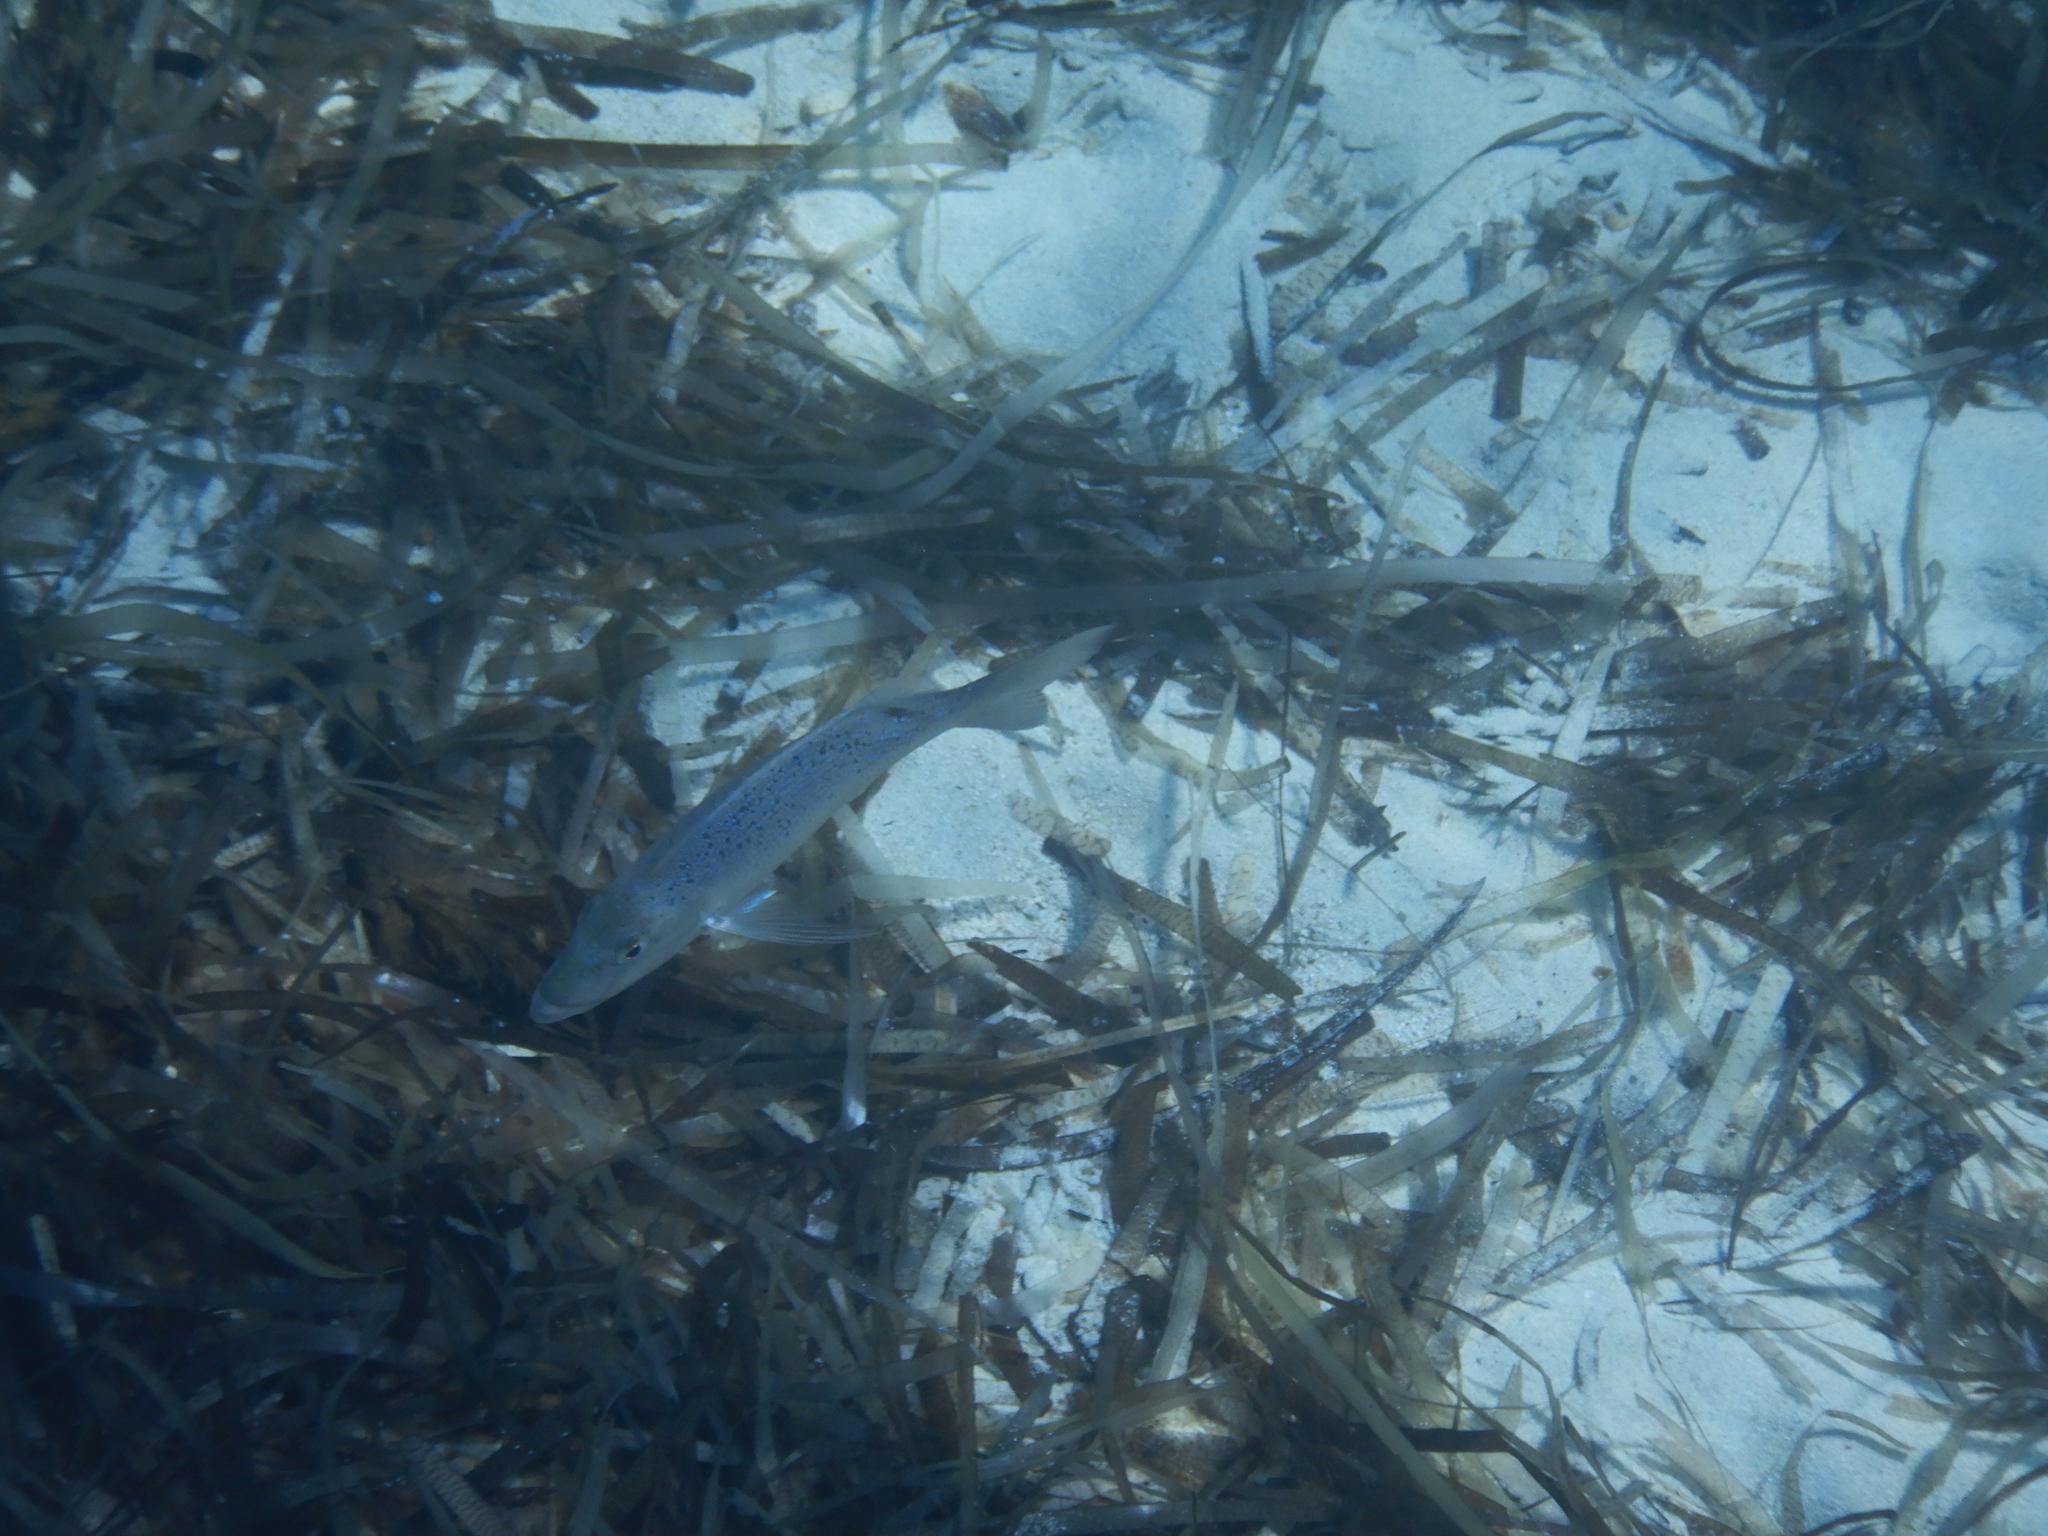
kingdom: Animalia
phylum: Chordata
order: Perciformes
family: Sparidae
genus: Dentex
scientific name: Dentex dentex
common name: Dentex
